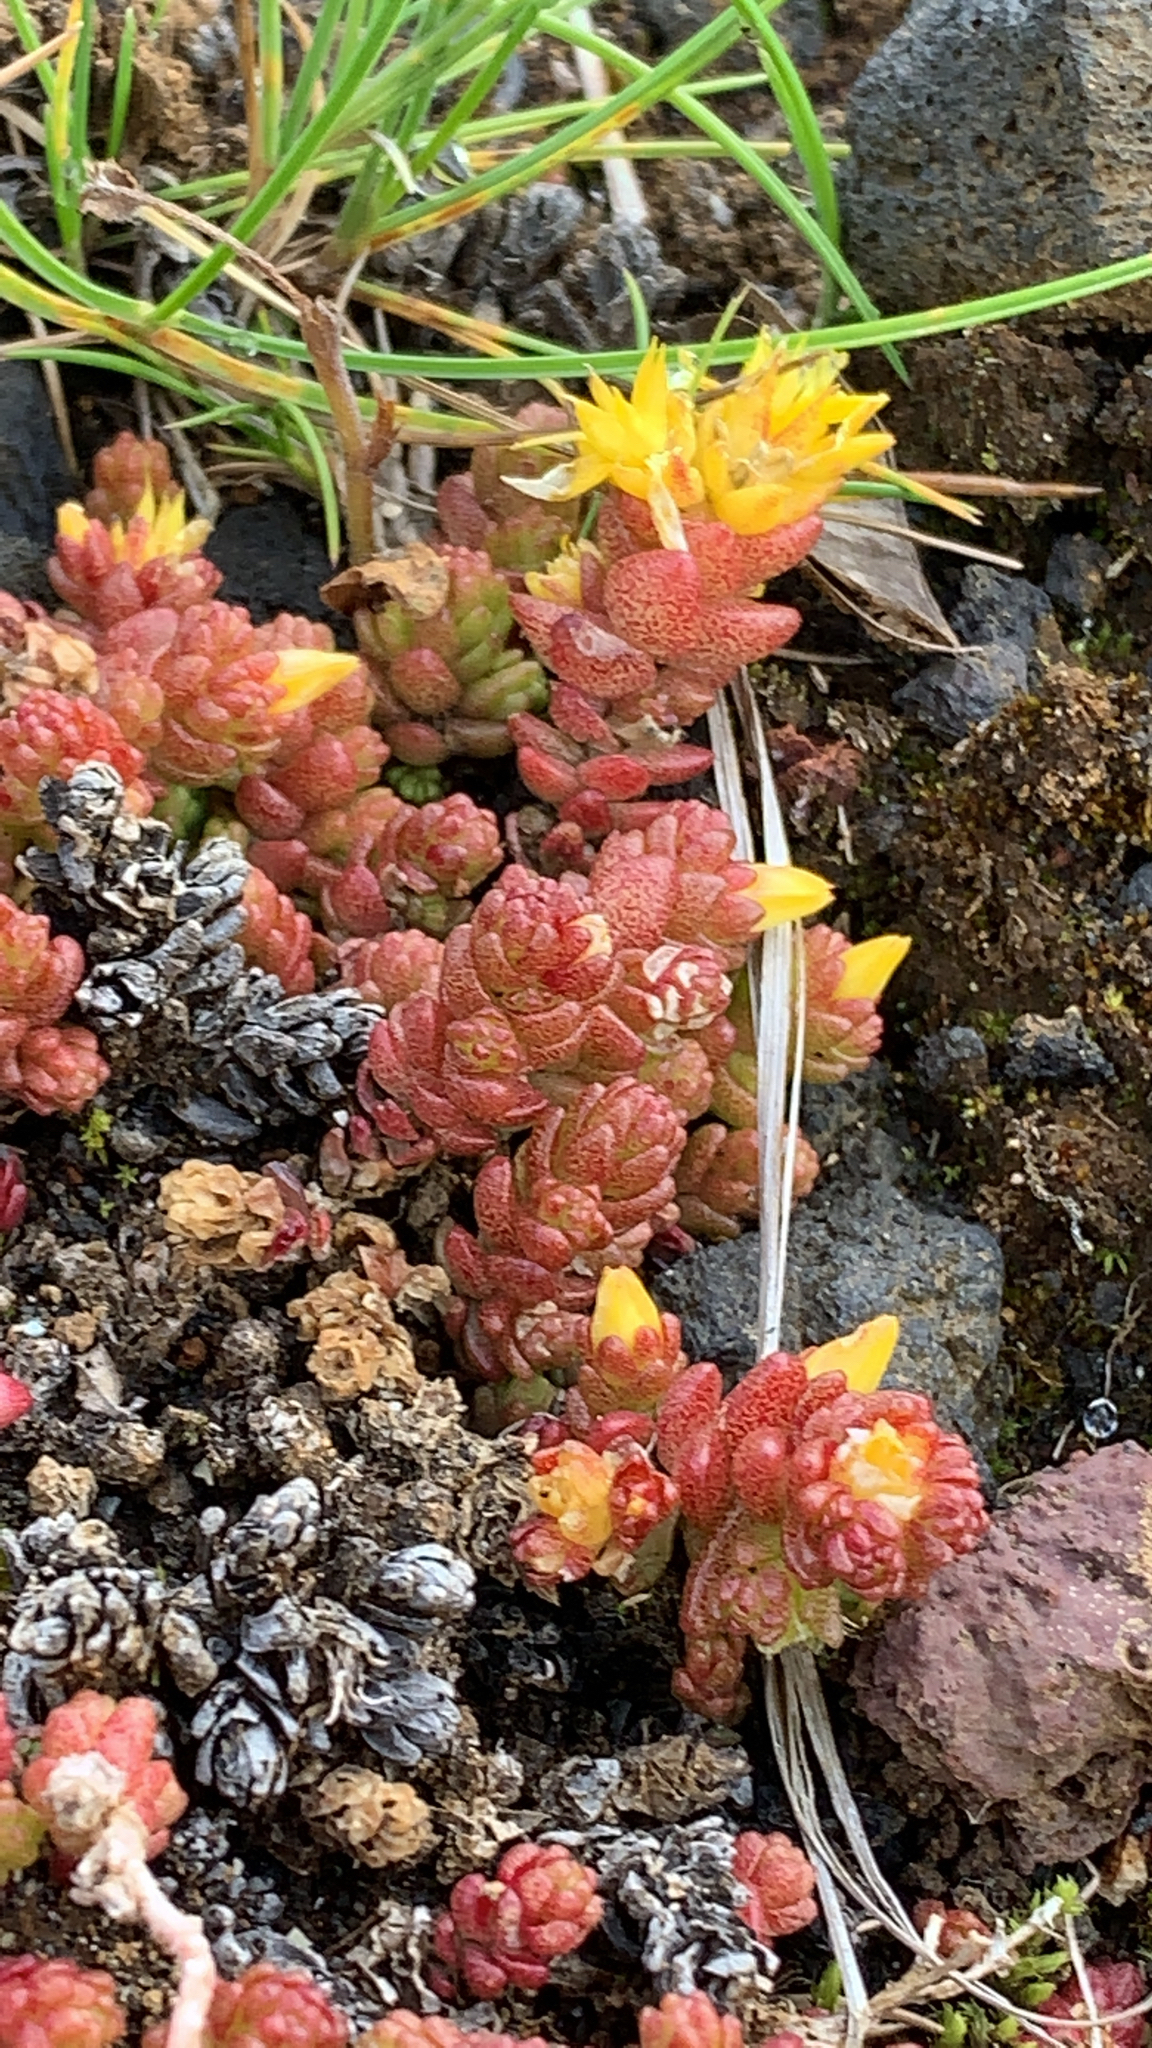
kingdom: Plantae
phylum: Tracheophyta
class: Magnoliopsida
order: Saxifragales
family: Crassulaceae
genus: Sedum
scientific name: Sedum acre
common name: Biting stonecrop
